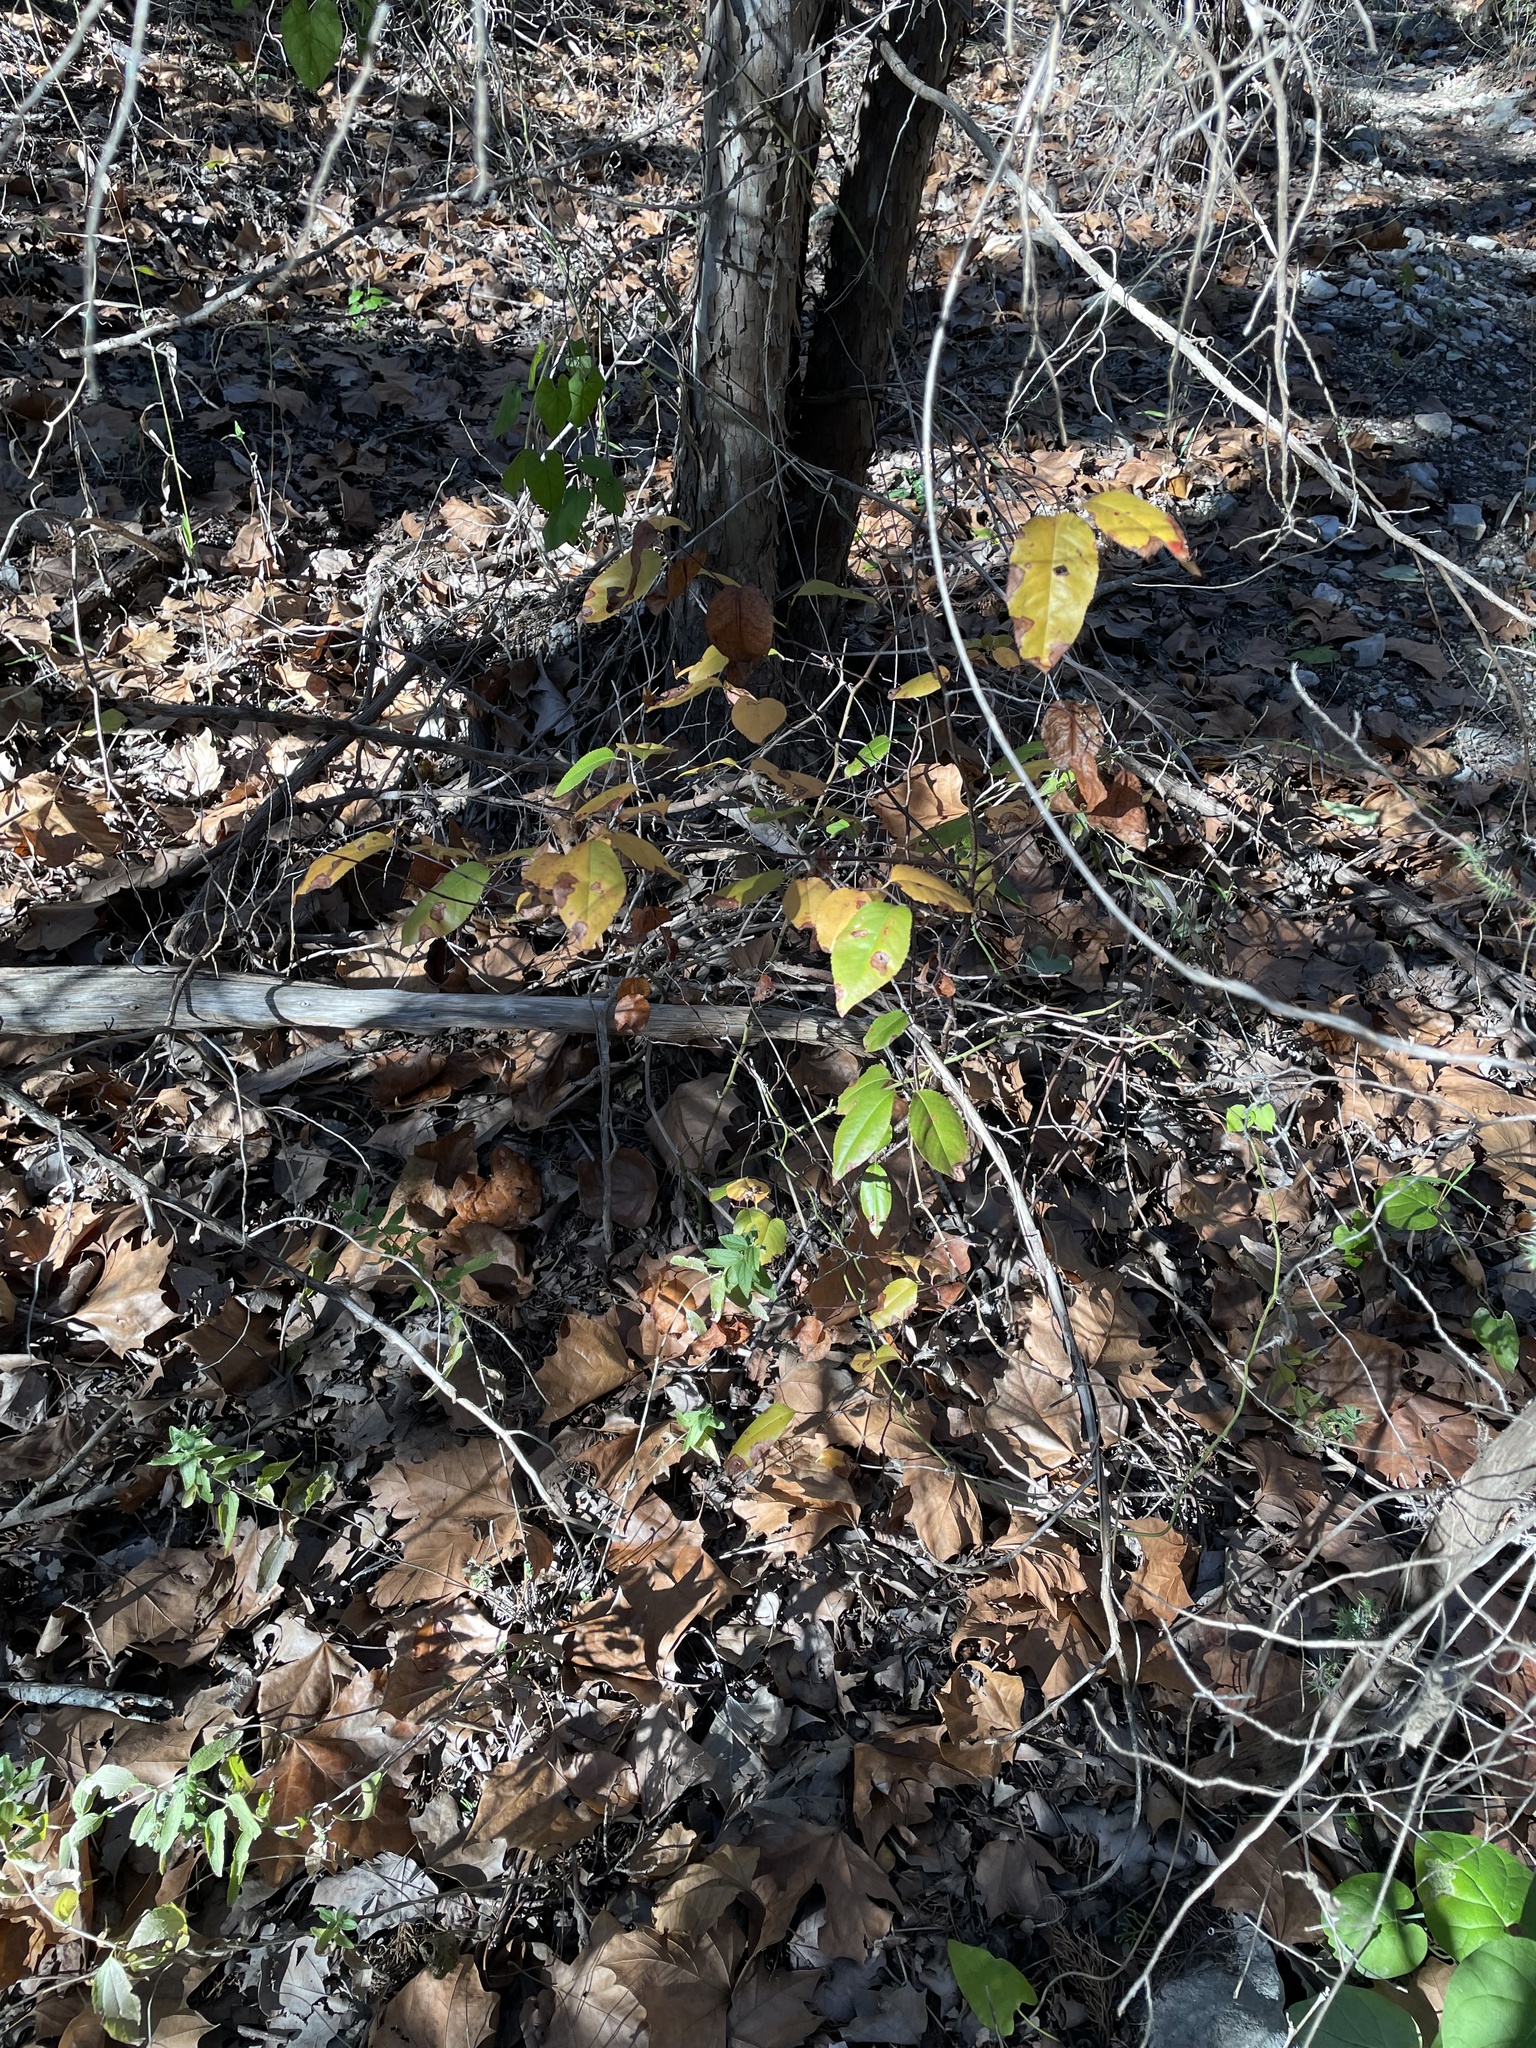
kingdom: Plantae
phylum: Tracheophyta
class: Magnoliopsida
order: Rosales
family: Rosaceae
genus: Prunus
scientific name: Prunus serotina
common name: Black cherry
